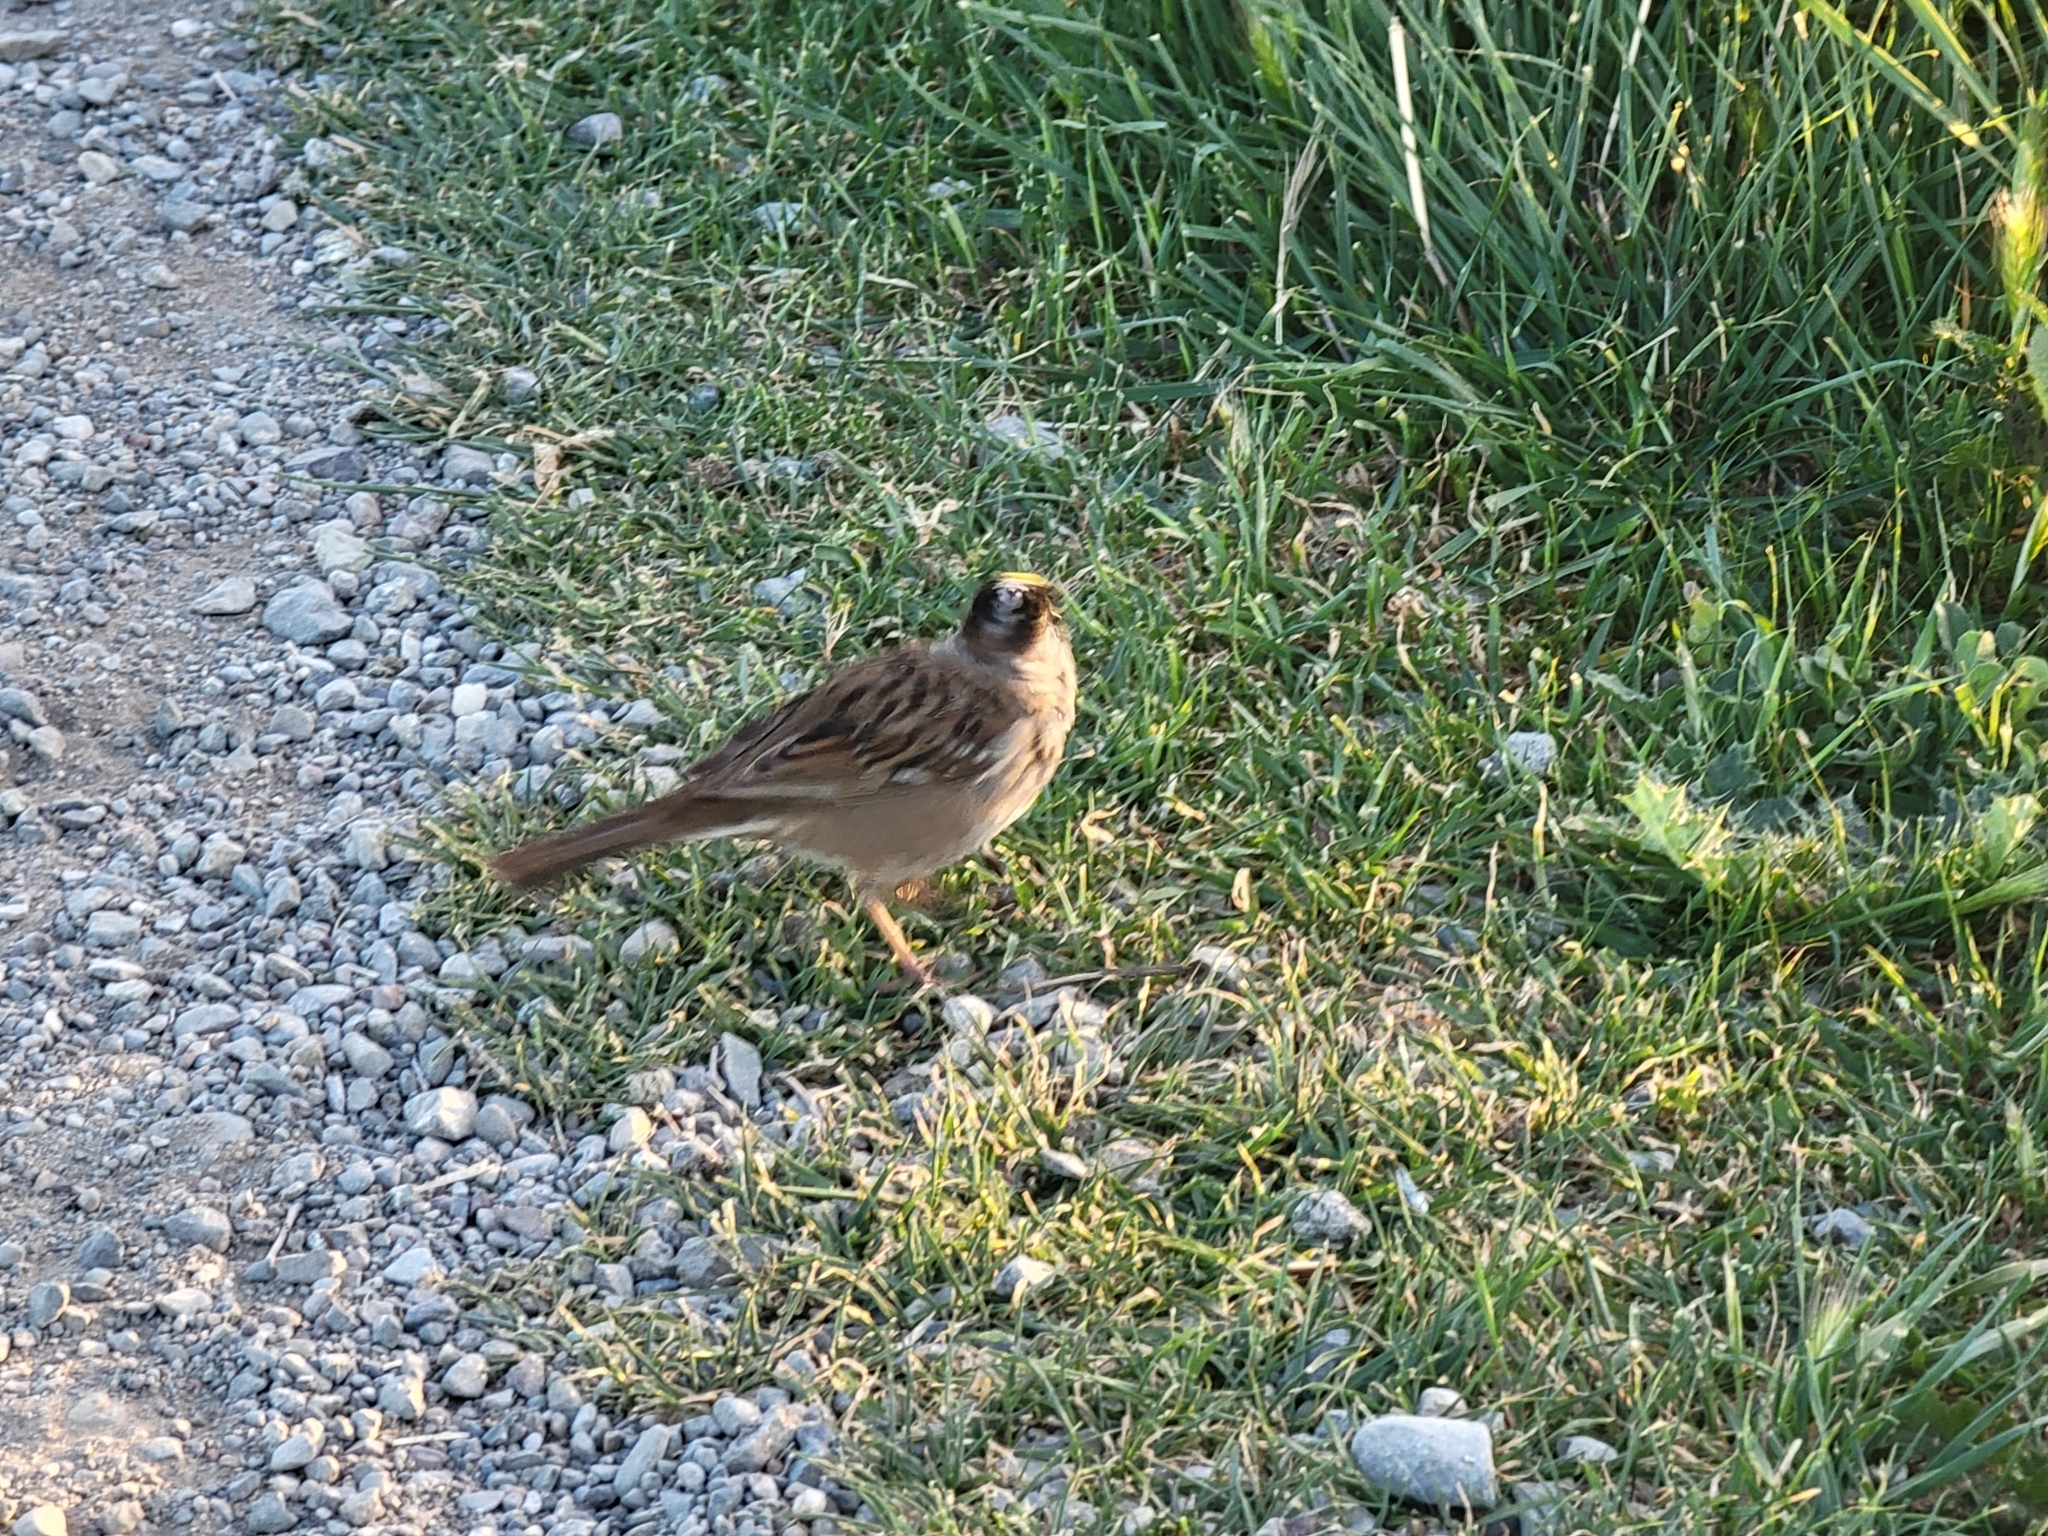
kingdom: Animalia
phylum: Chordata
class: Aves
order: Passeriformes
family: Passerellidae
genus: Zonotrichia
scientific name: Zonotrichia atricapilla
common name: Golden-crowned sparrow
